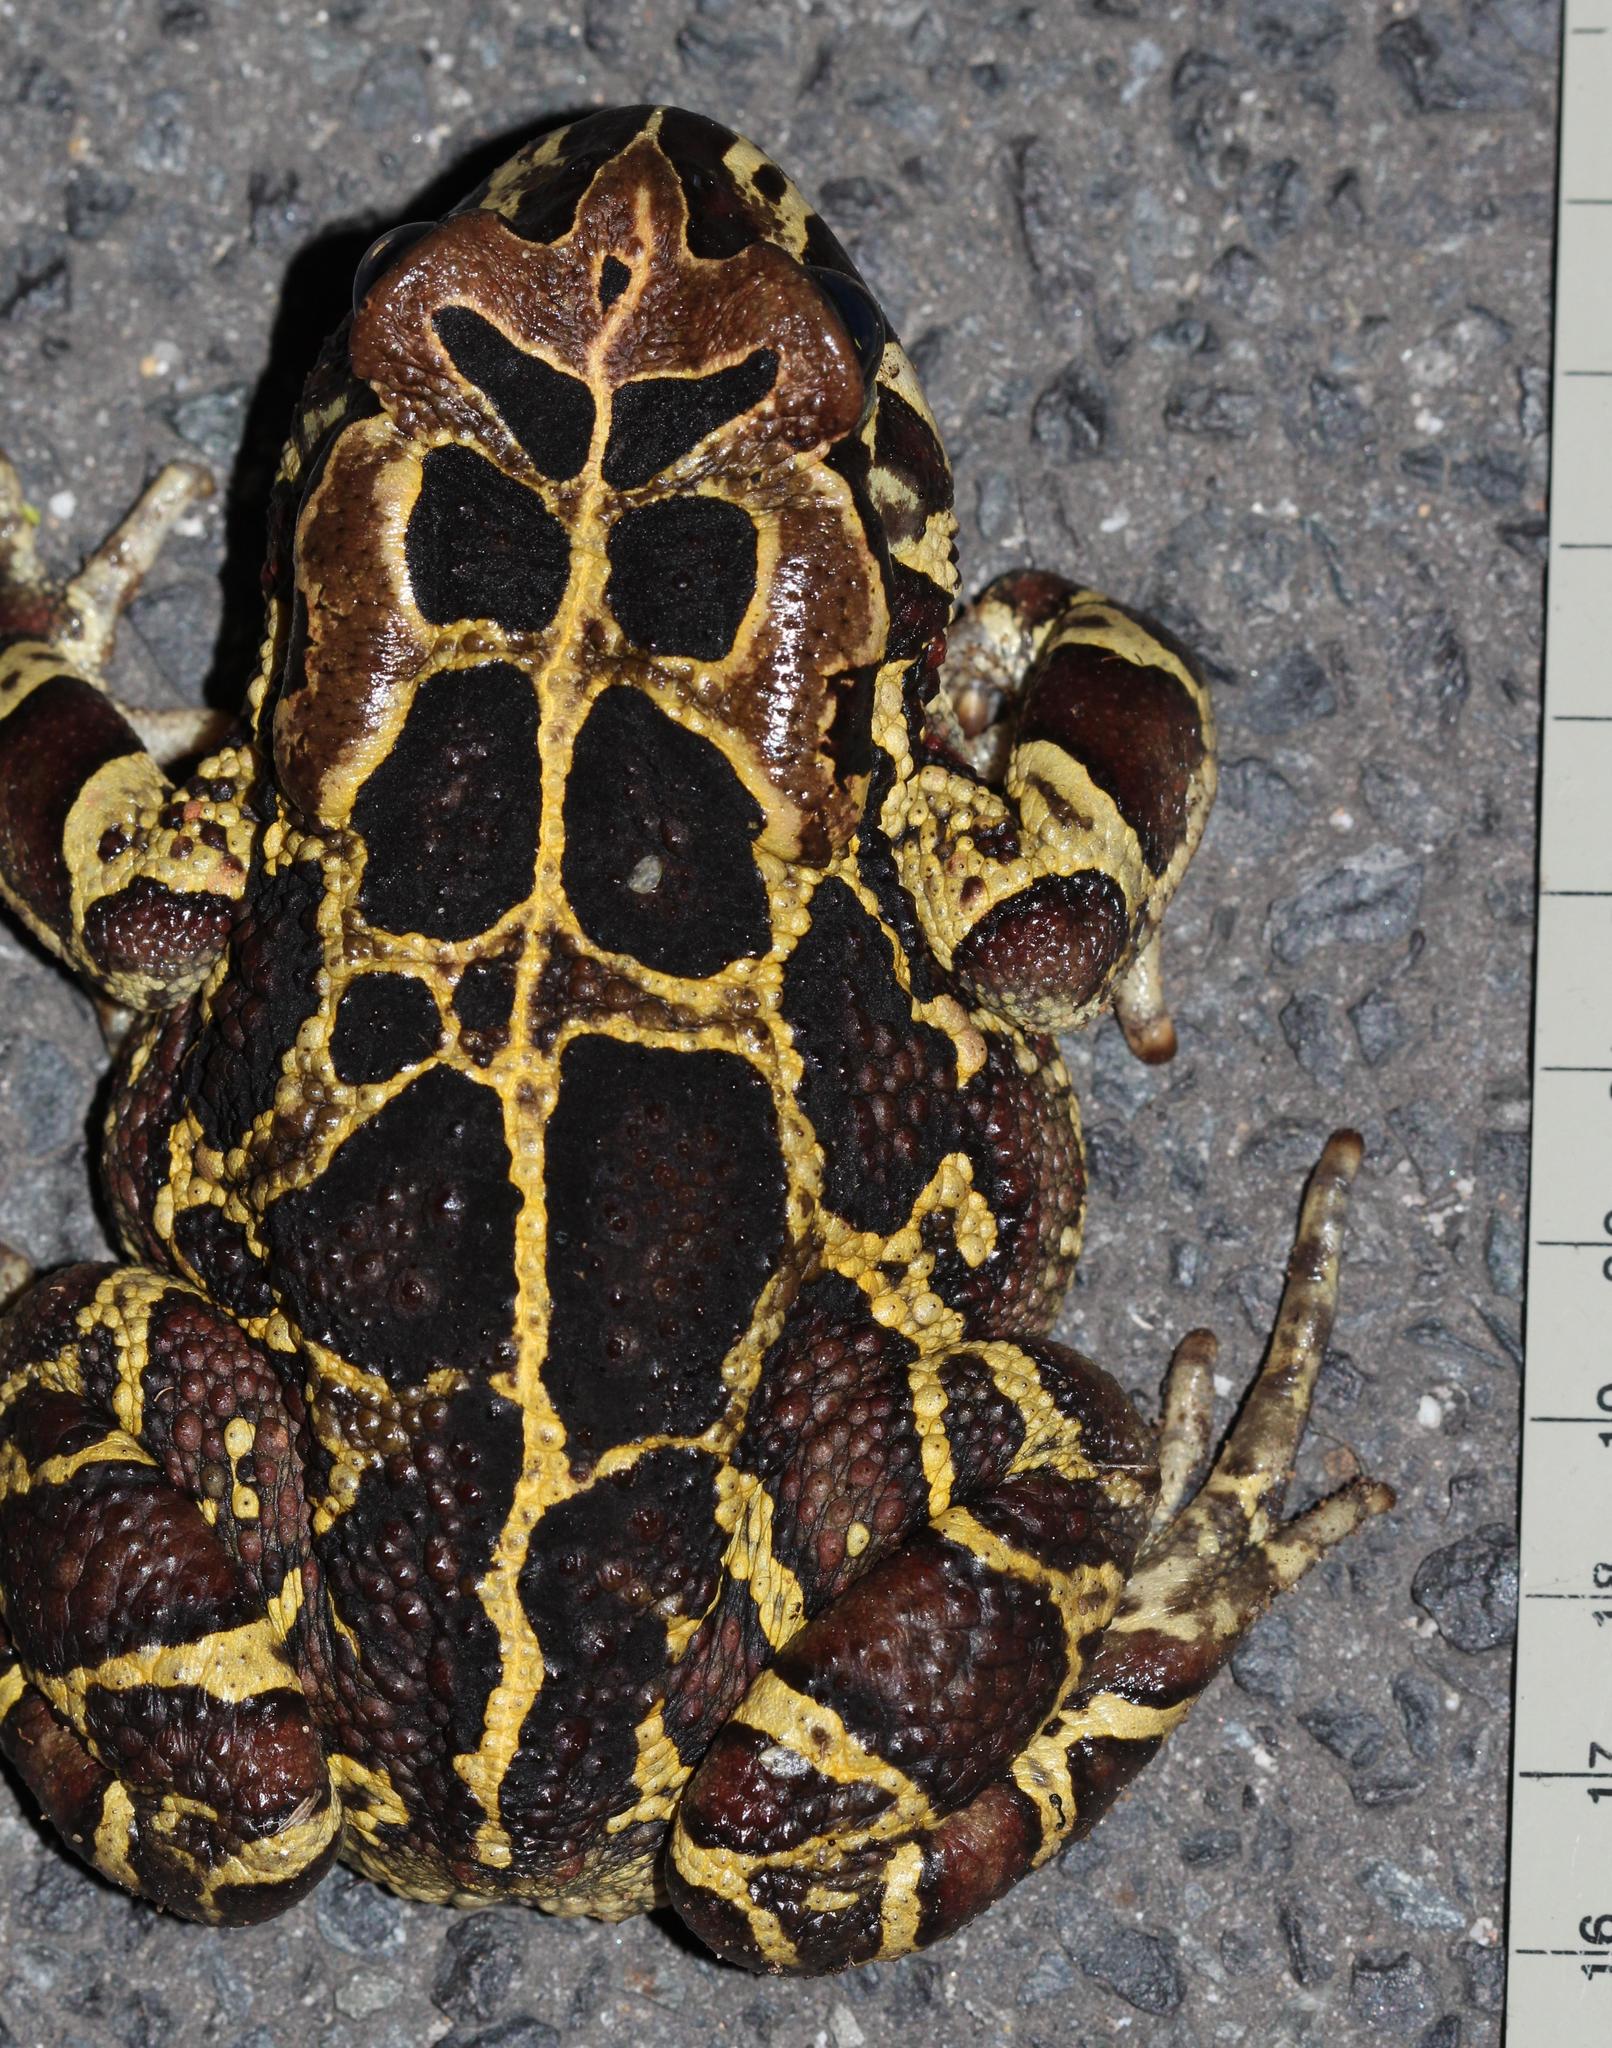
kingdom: Animalia
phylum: Chordata
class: Amphibia
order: Anura
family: Bufonidae
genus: Sclerophrys
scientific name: Sclerophrys pantherina
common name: Panther toad
